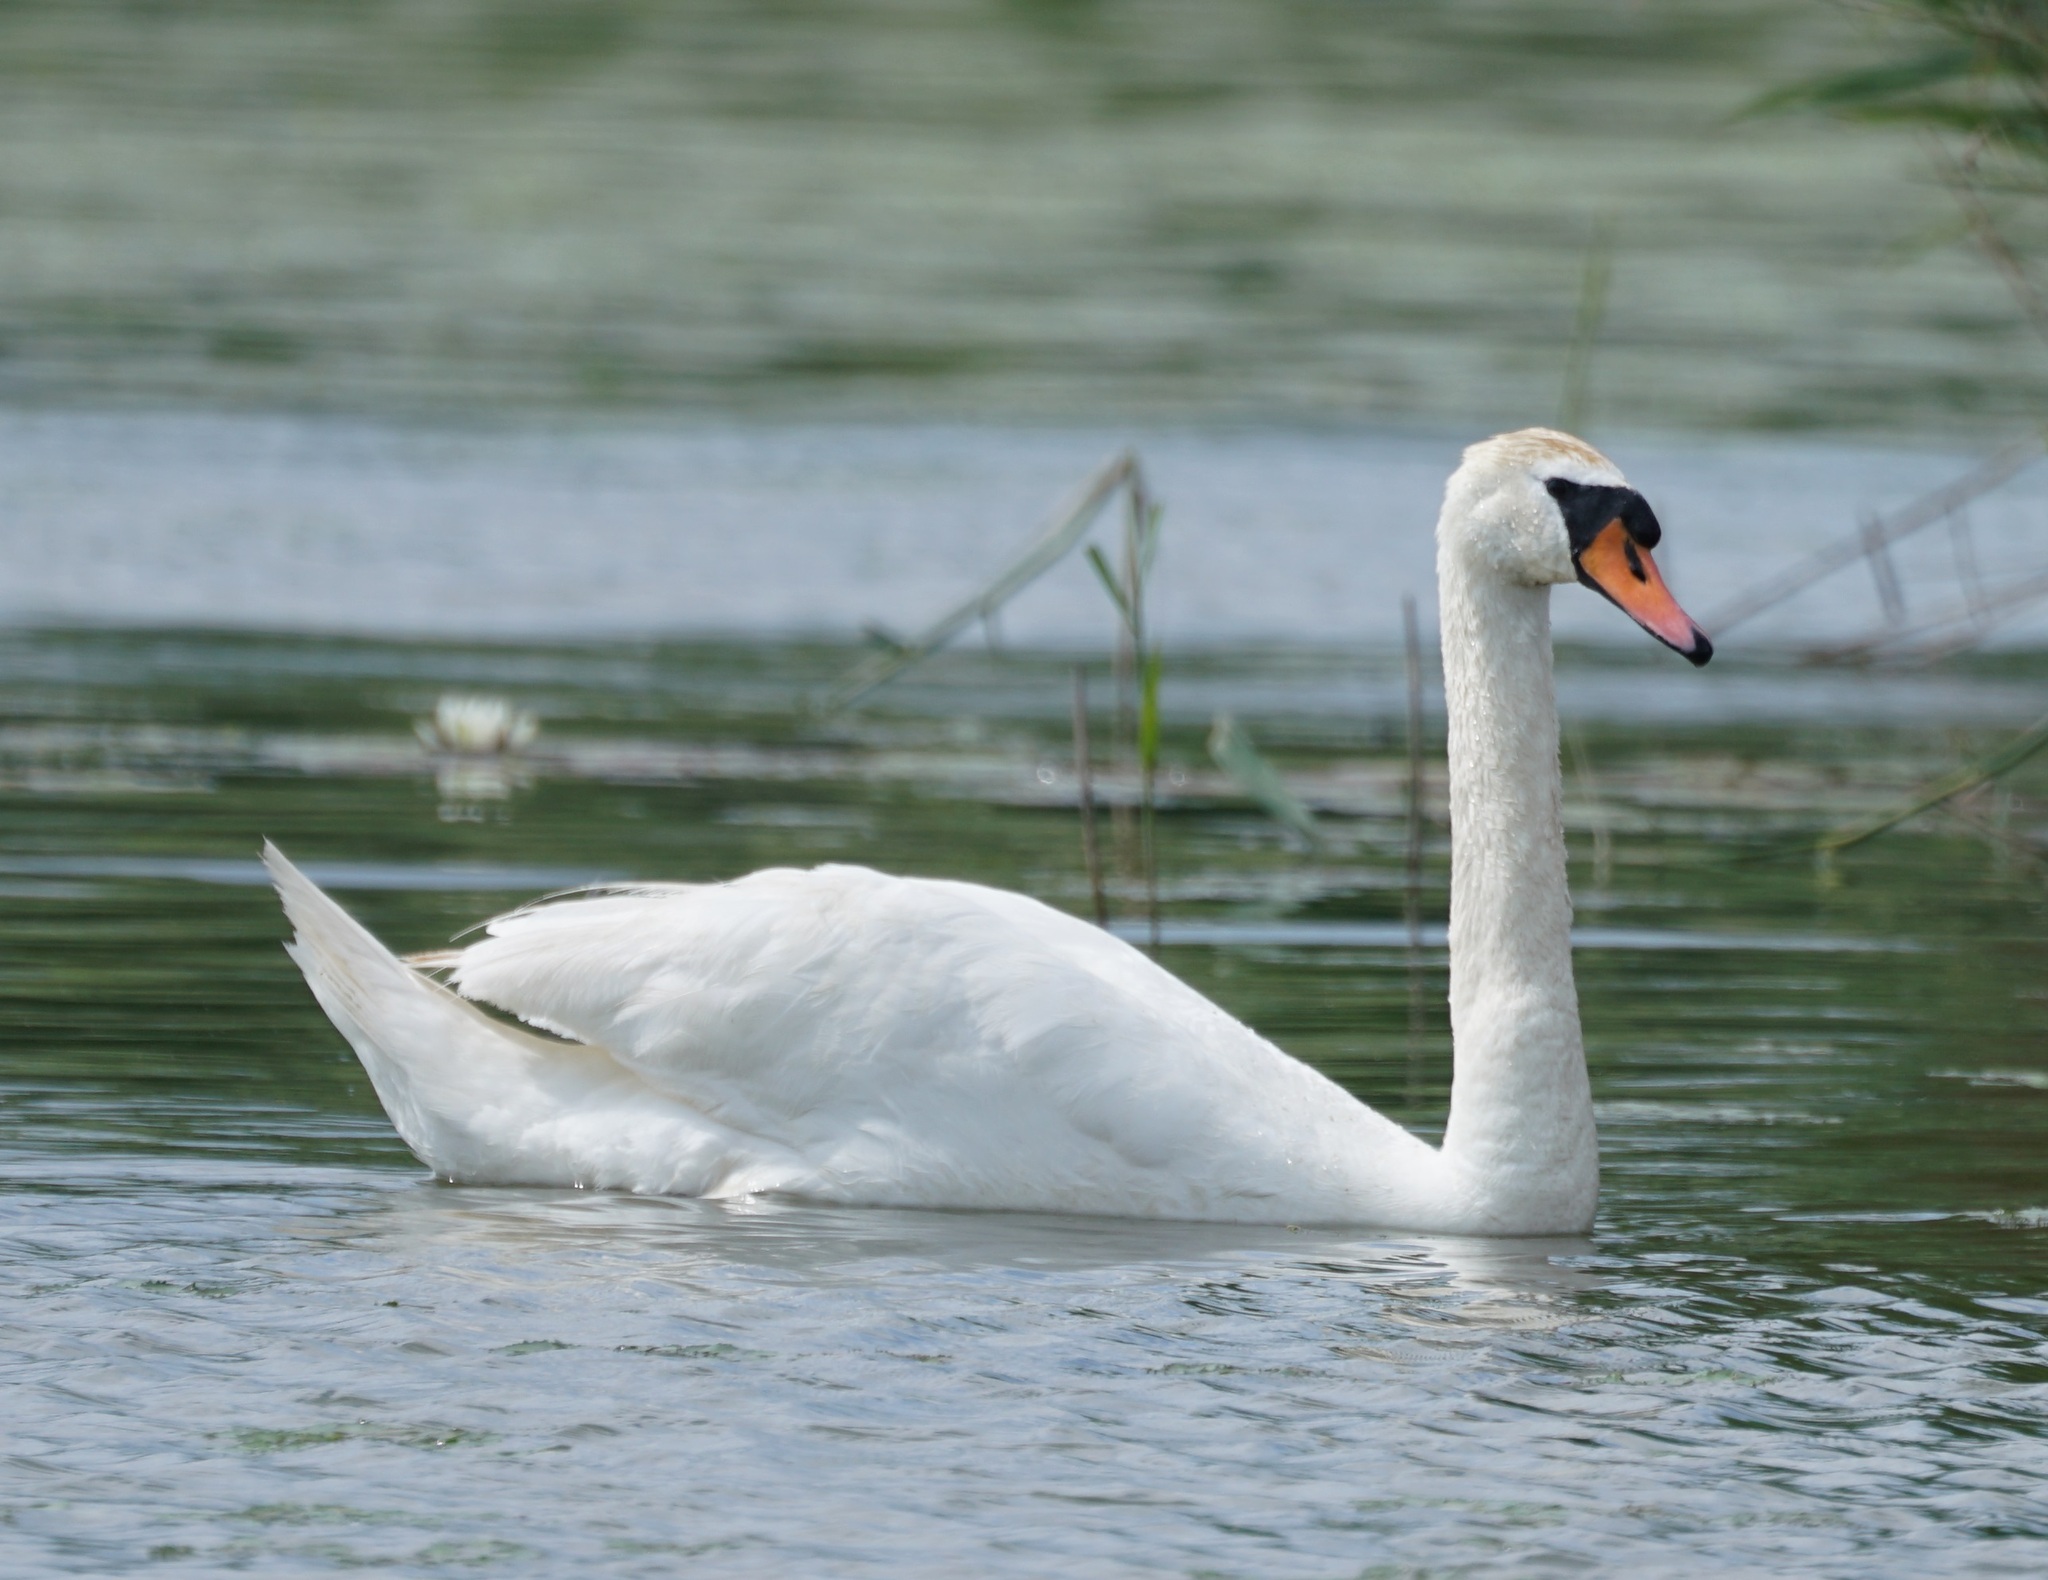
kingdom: Animalia
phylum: Chordata
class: Aves
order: Anseriformes
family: Anatidae
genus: Cygnus
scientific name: Cygnus olor
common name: Mute swan
